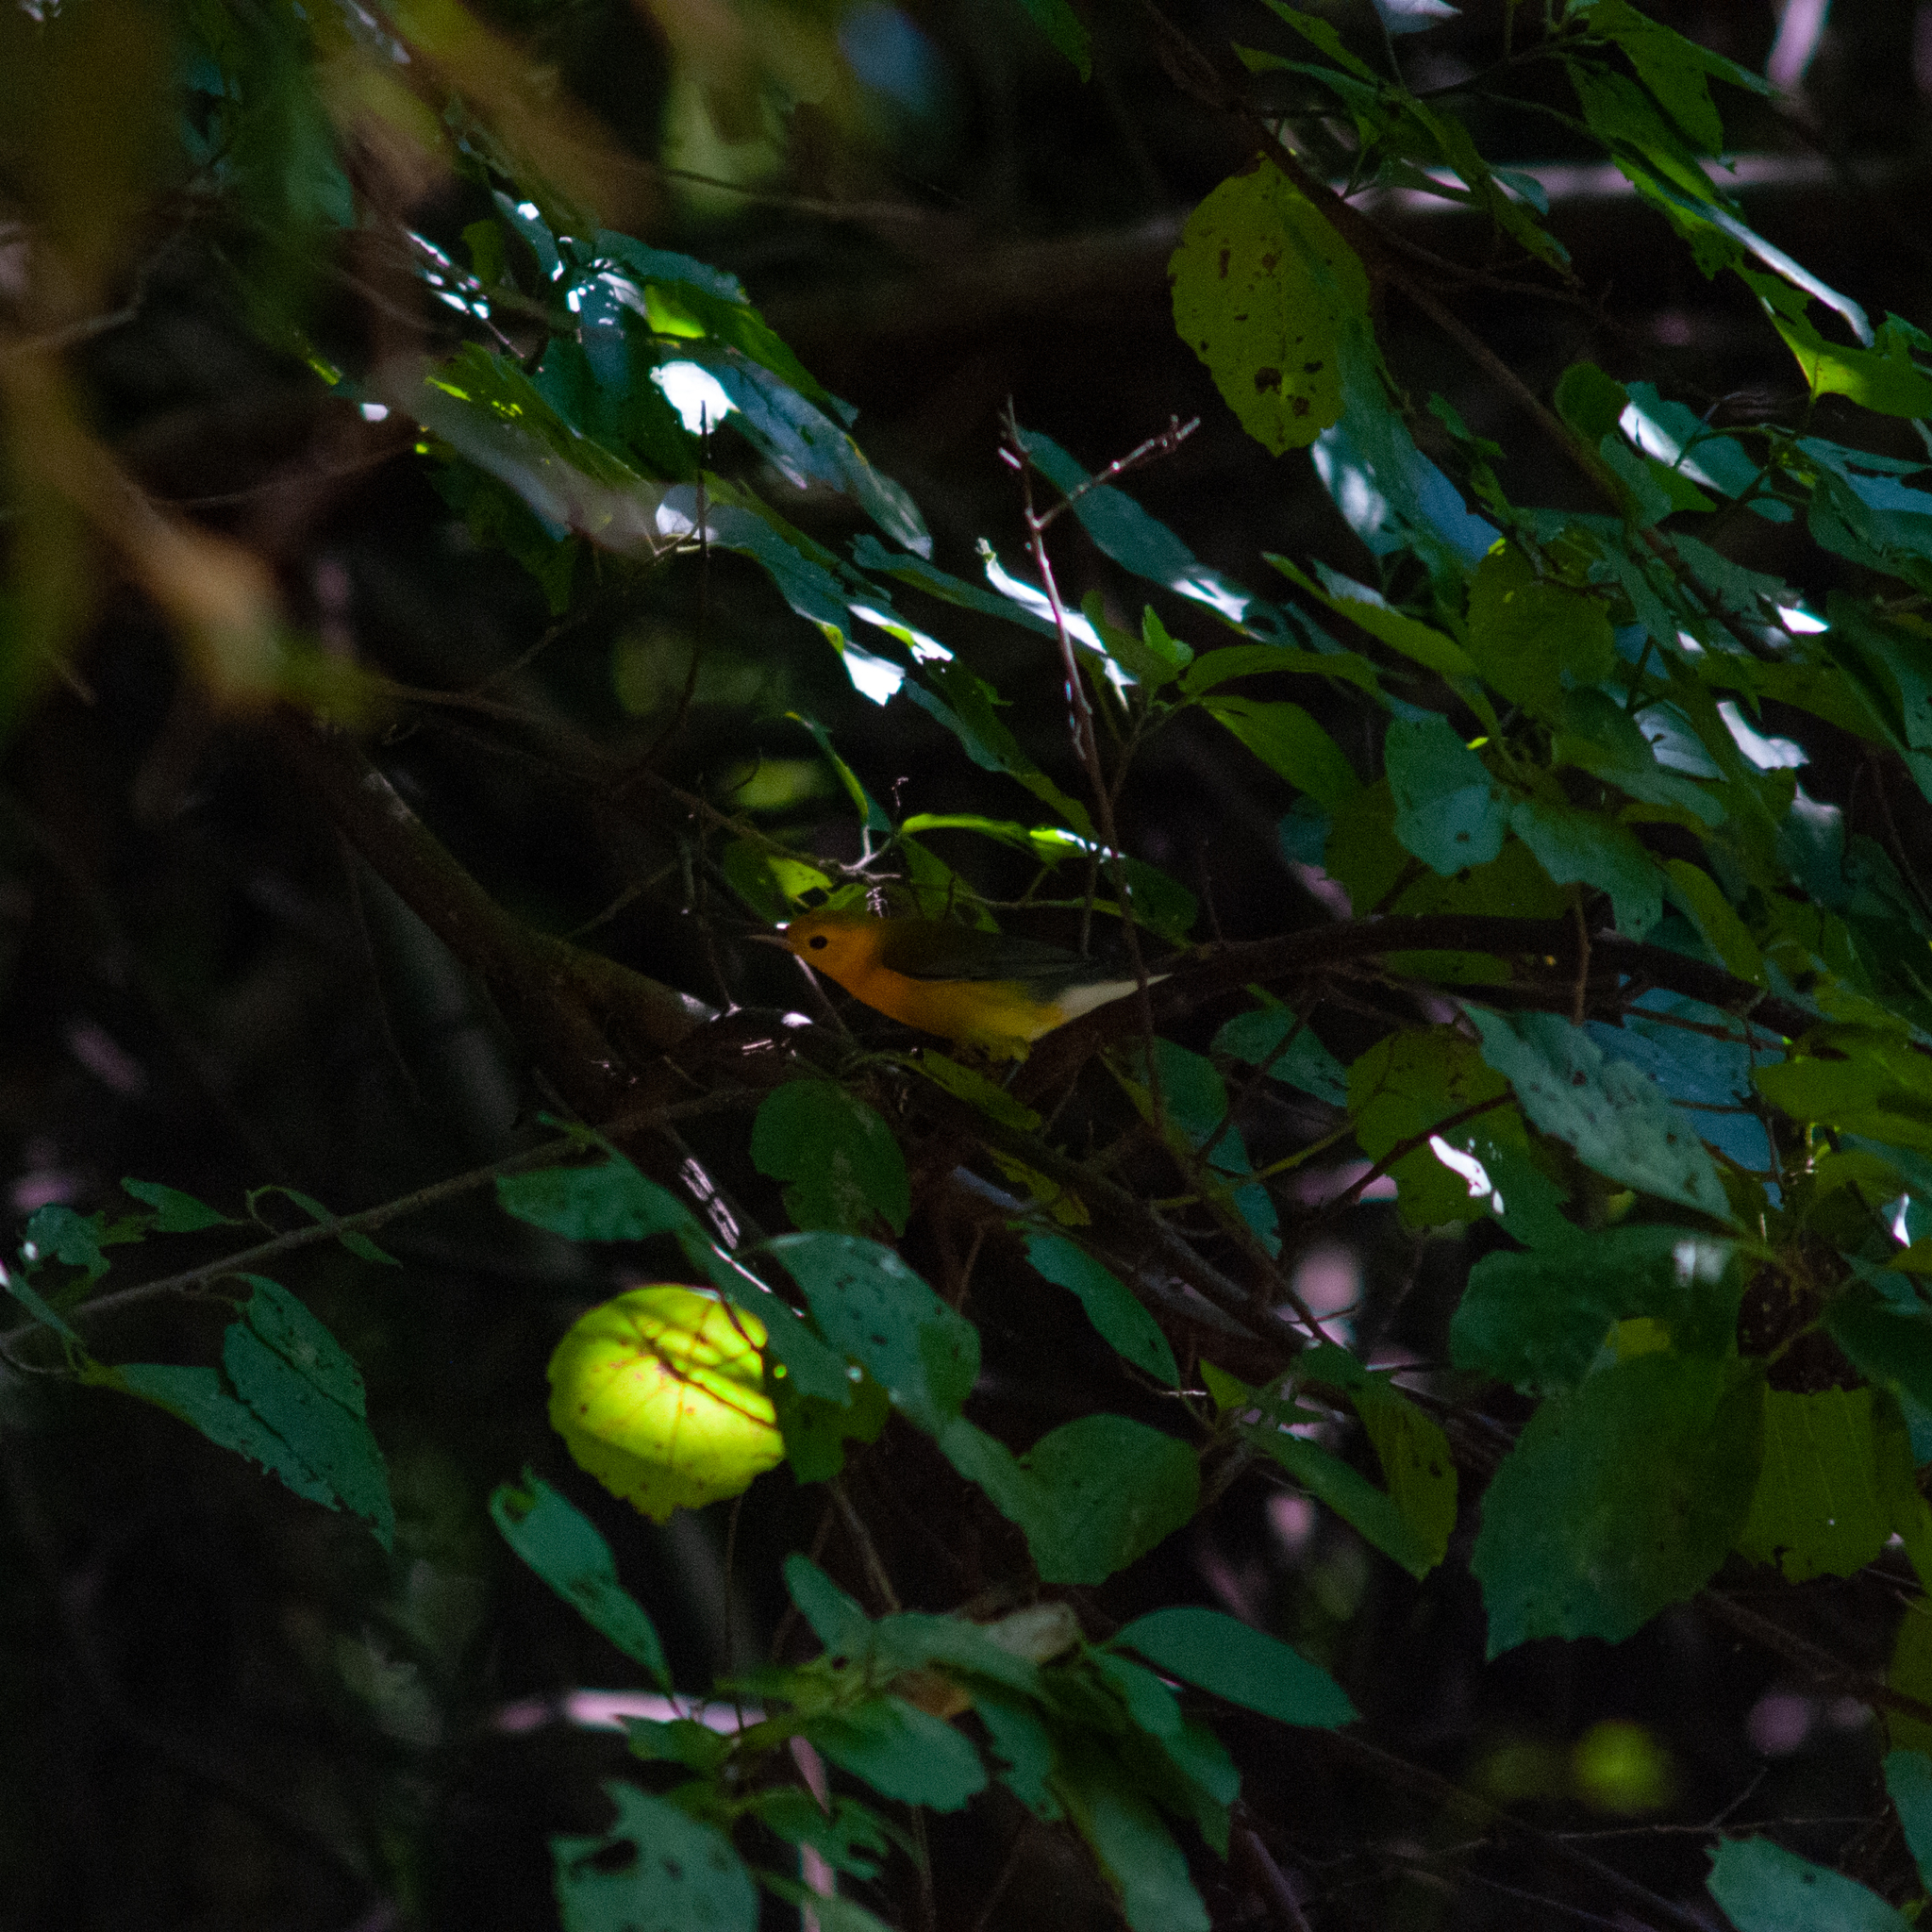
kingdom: Animalia
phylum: Chordata
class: Aves
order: Passeriformes
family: Parulidae
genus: Protonotaria
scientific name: Protonotaria citrea
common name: Prothonotary warbler
